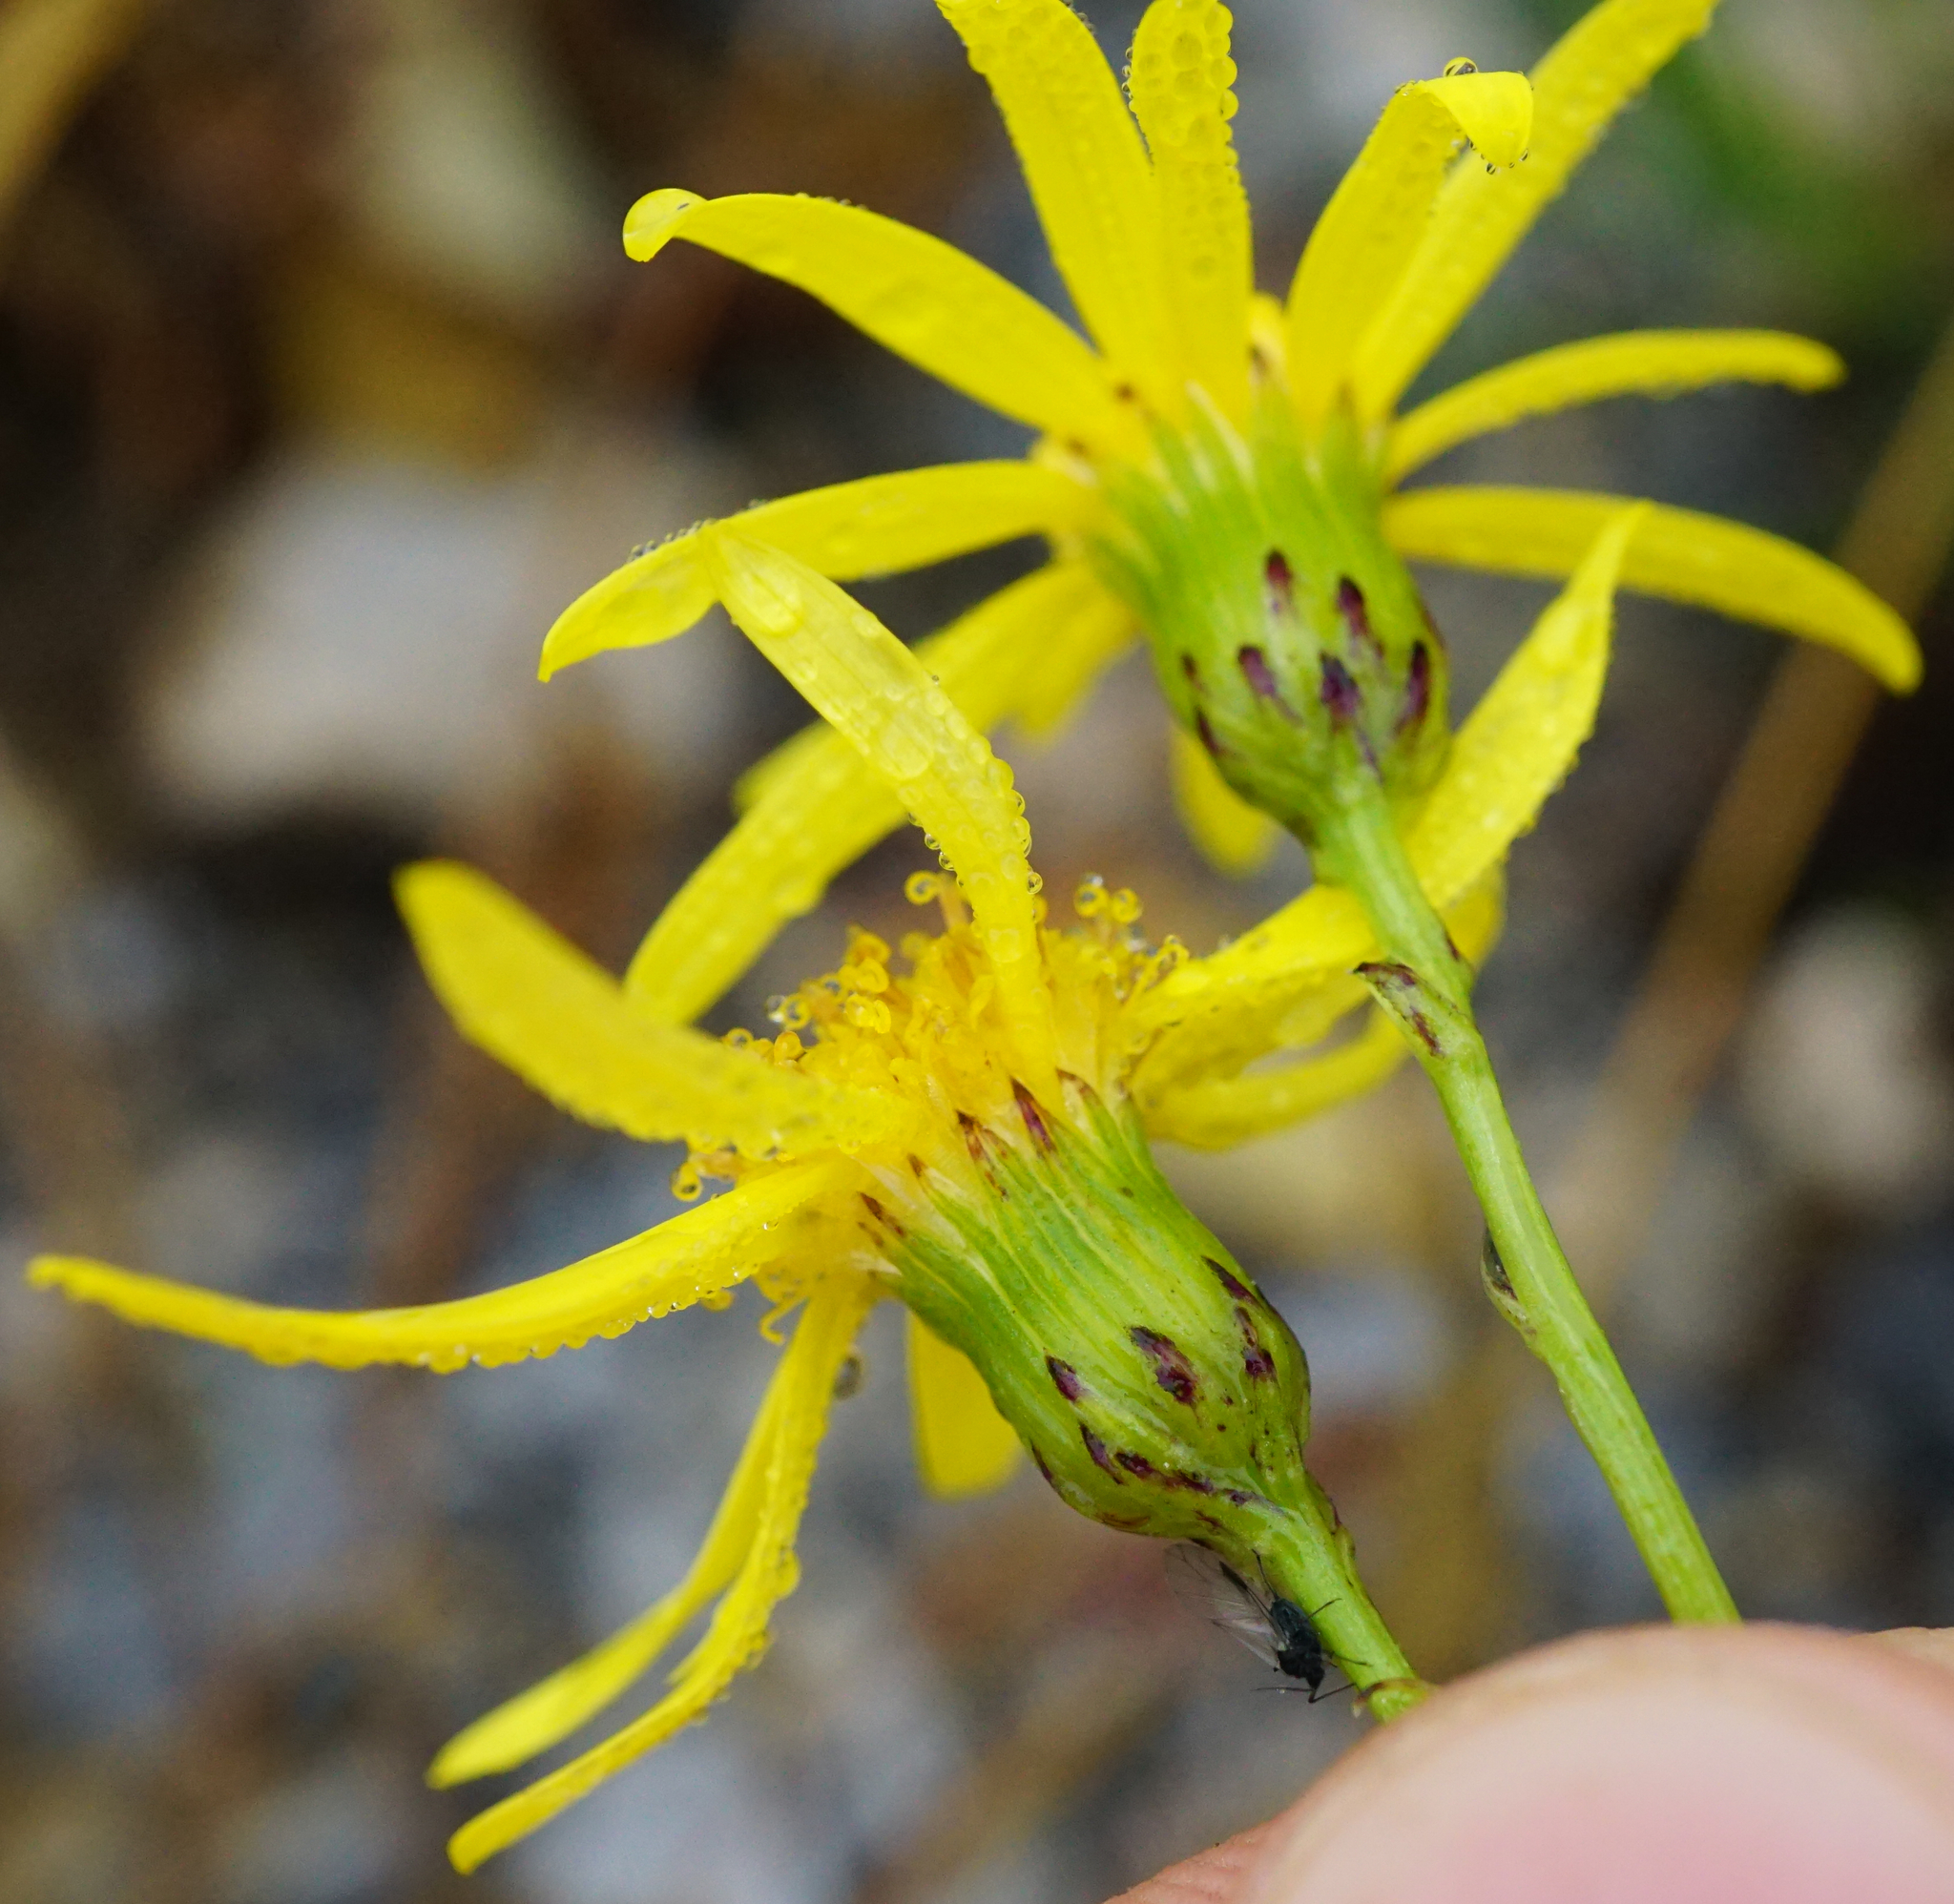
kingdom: Plantae
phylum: Tracheophyta
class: Magnoliopsida
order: Asterales
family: Asteraceae
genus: Senecio
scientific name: Senecio inaequidens
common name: Narrow-leaved ragwort
